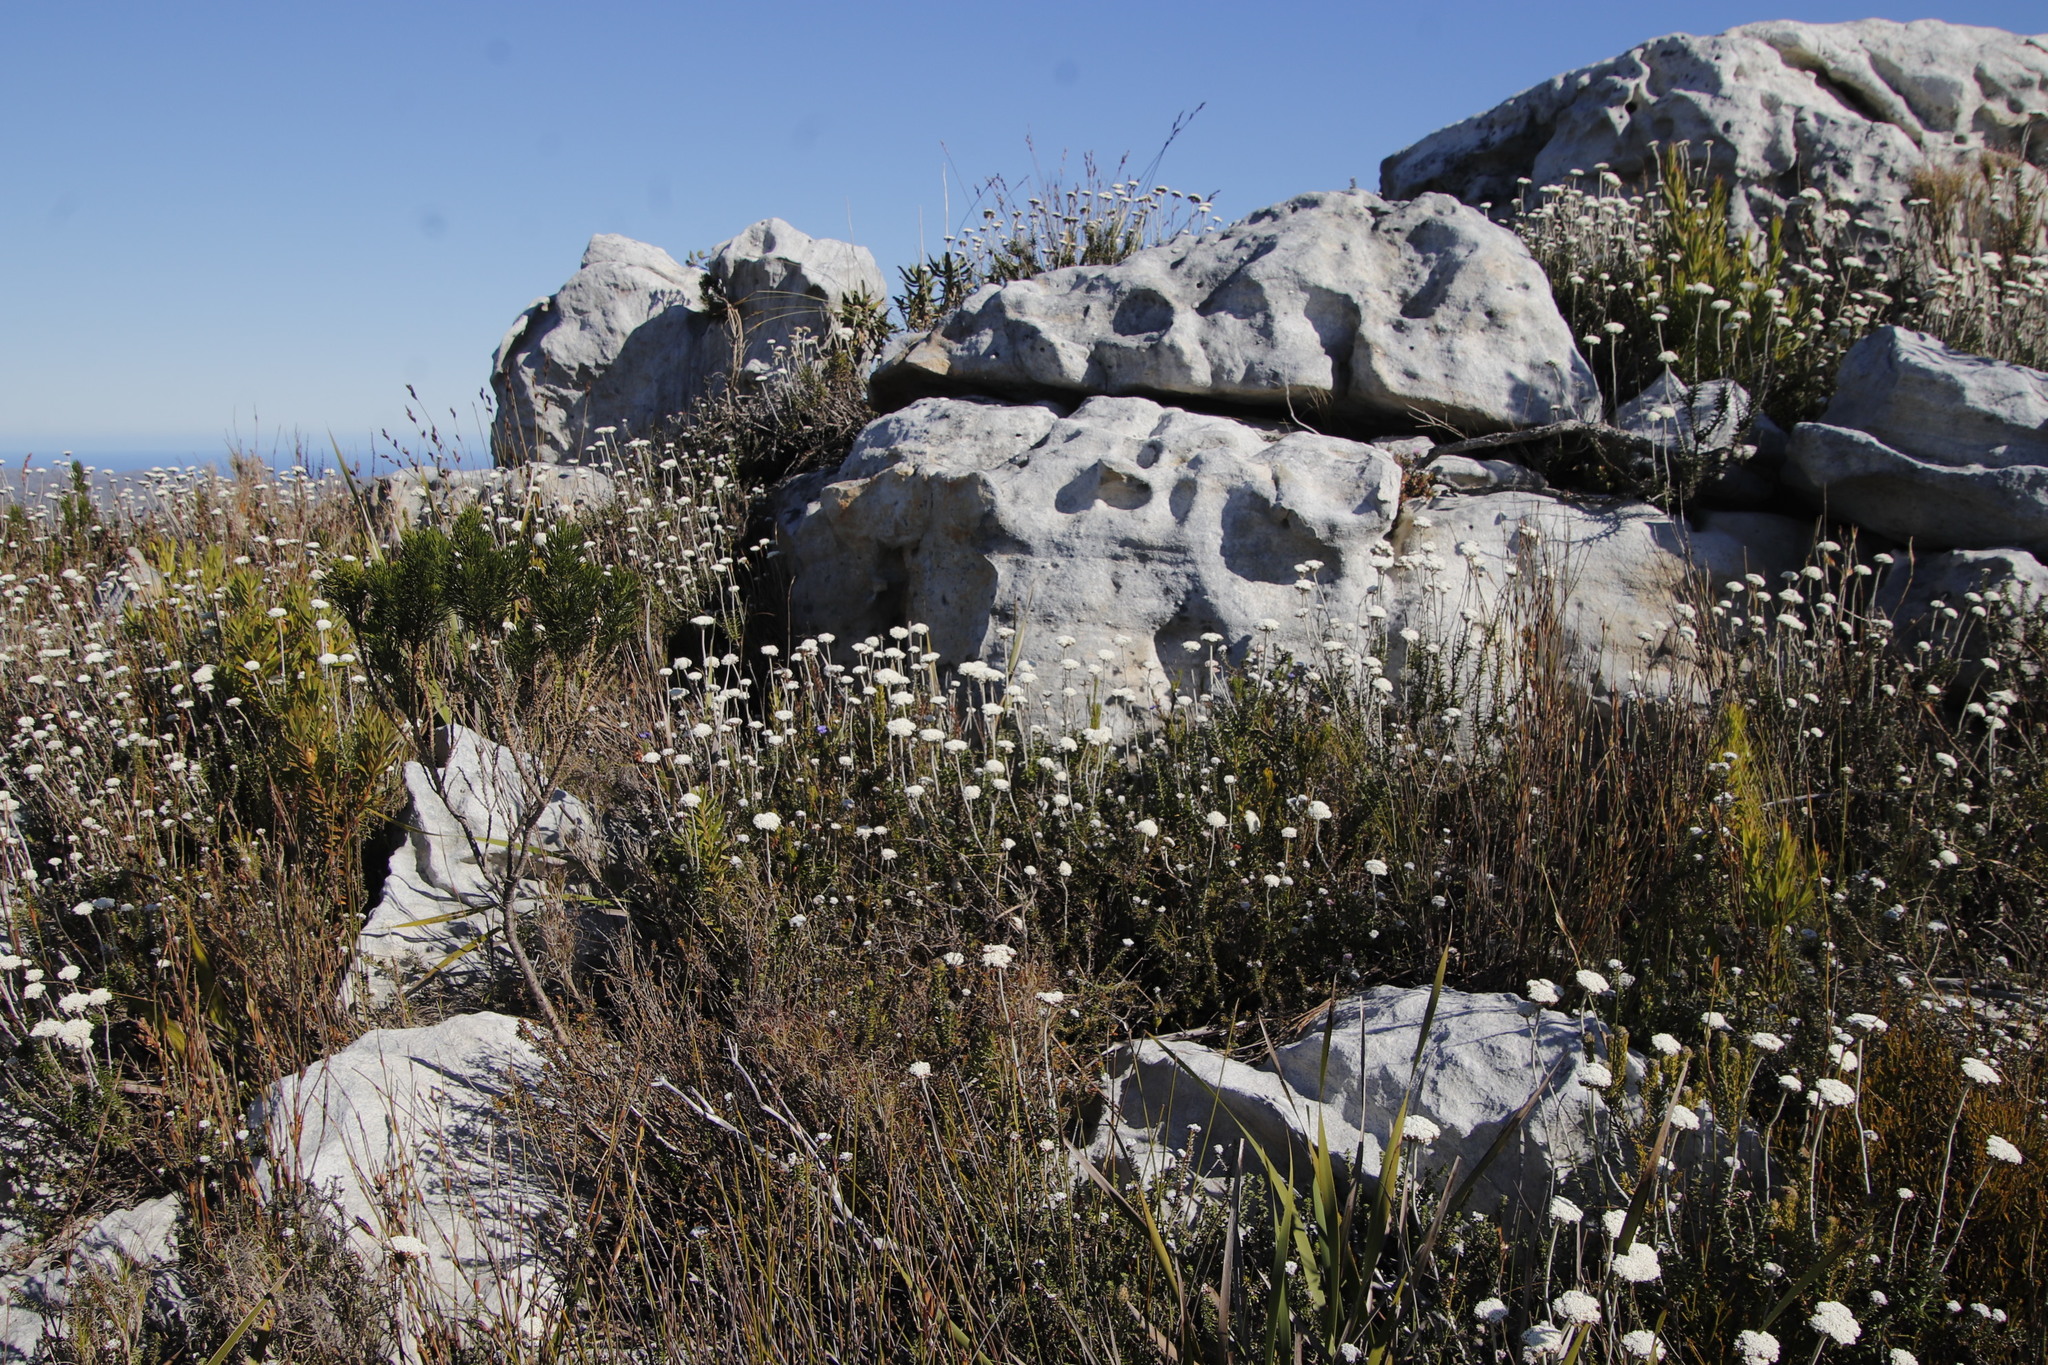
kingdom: Plantae
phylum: Tracheophyta
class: Magnoliopsida
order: Asterales
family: Asteraceae
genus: Anaxeton
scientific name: Anaxeton arborescens
